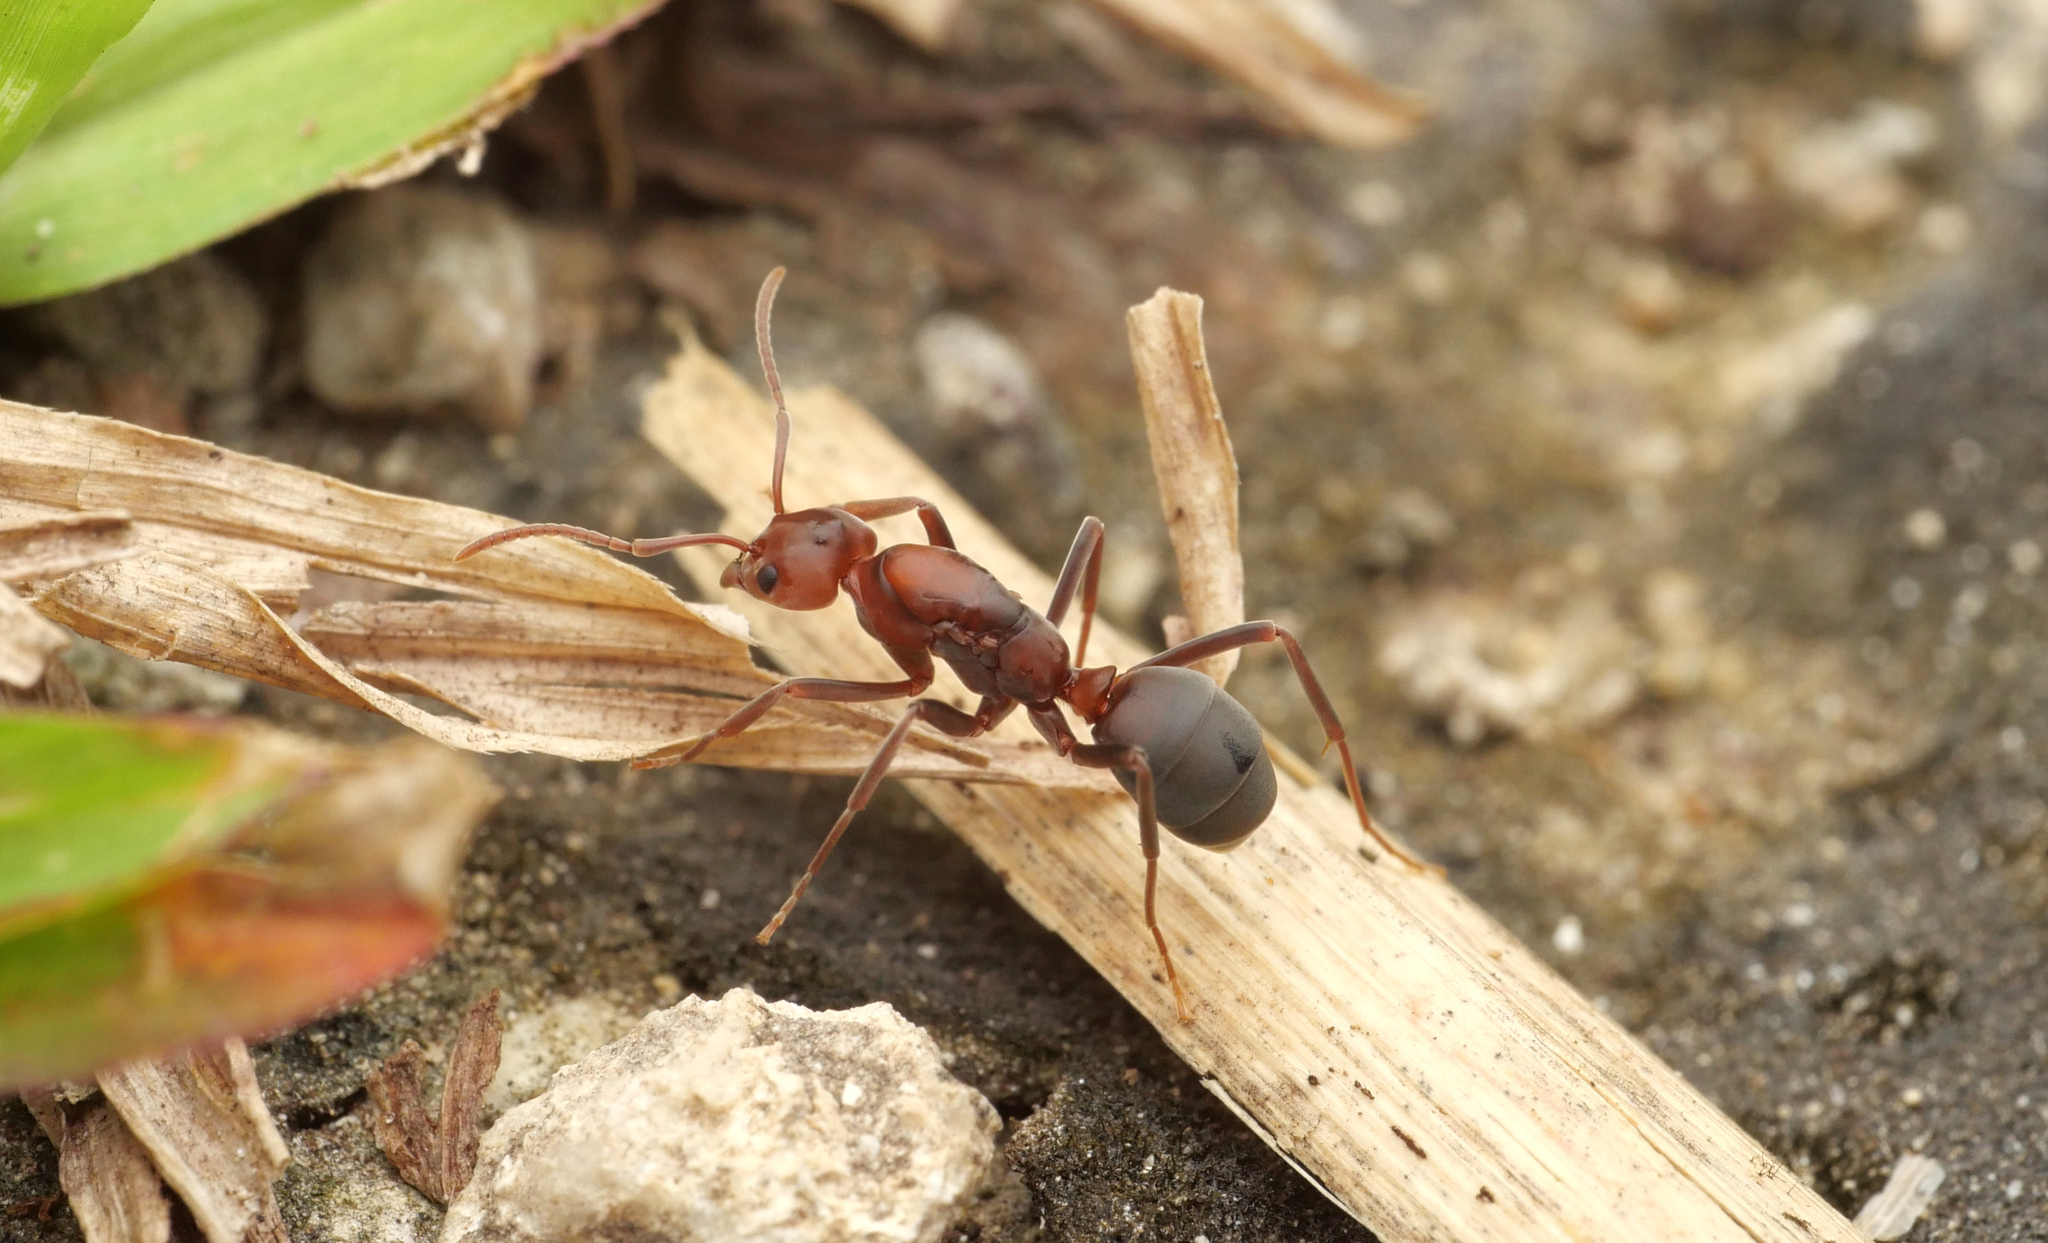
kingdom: Animalia
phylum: Arthropoda
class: Insecta
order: Hymenoptera
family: Formicidae
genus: Papyrius
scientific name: Papyrius nitidus
